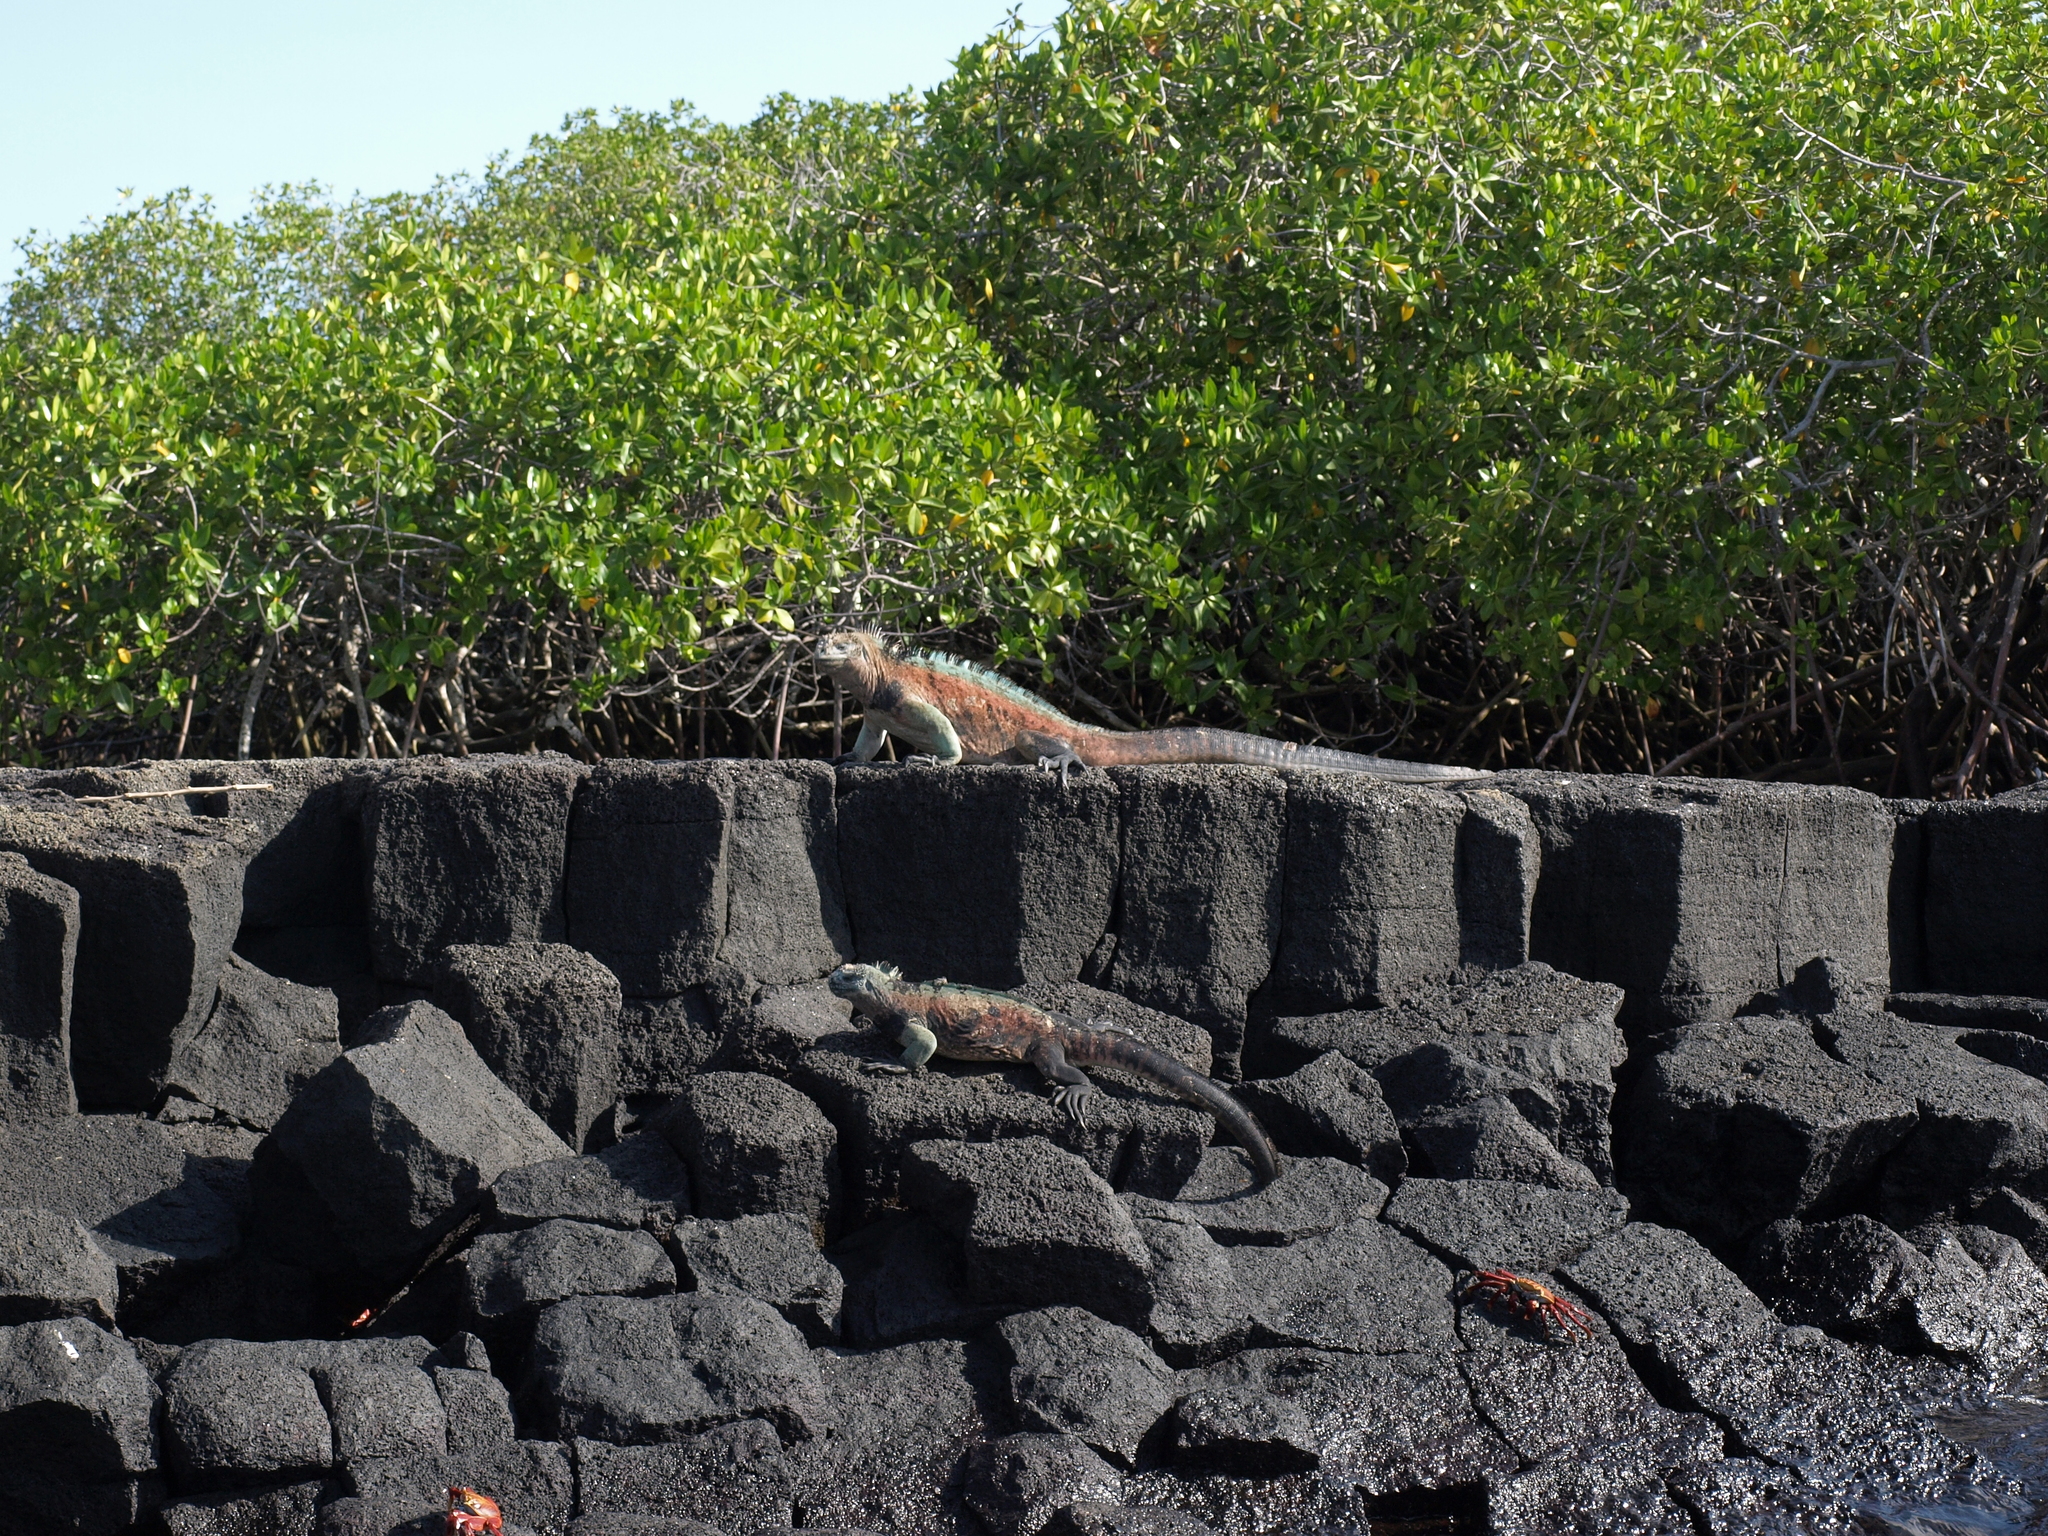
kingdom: Animalia
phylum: Chordata
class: Squamata
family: Iguanidae
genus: Amblyrhynchus
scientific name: Amblyrhynchus cristatus
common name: Marine iguana
